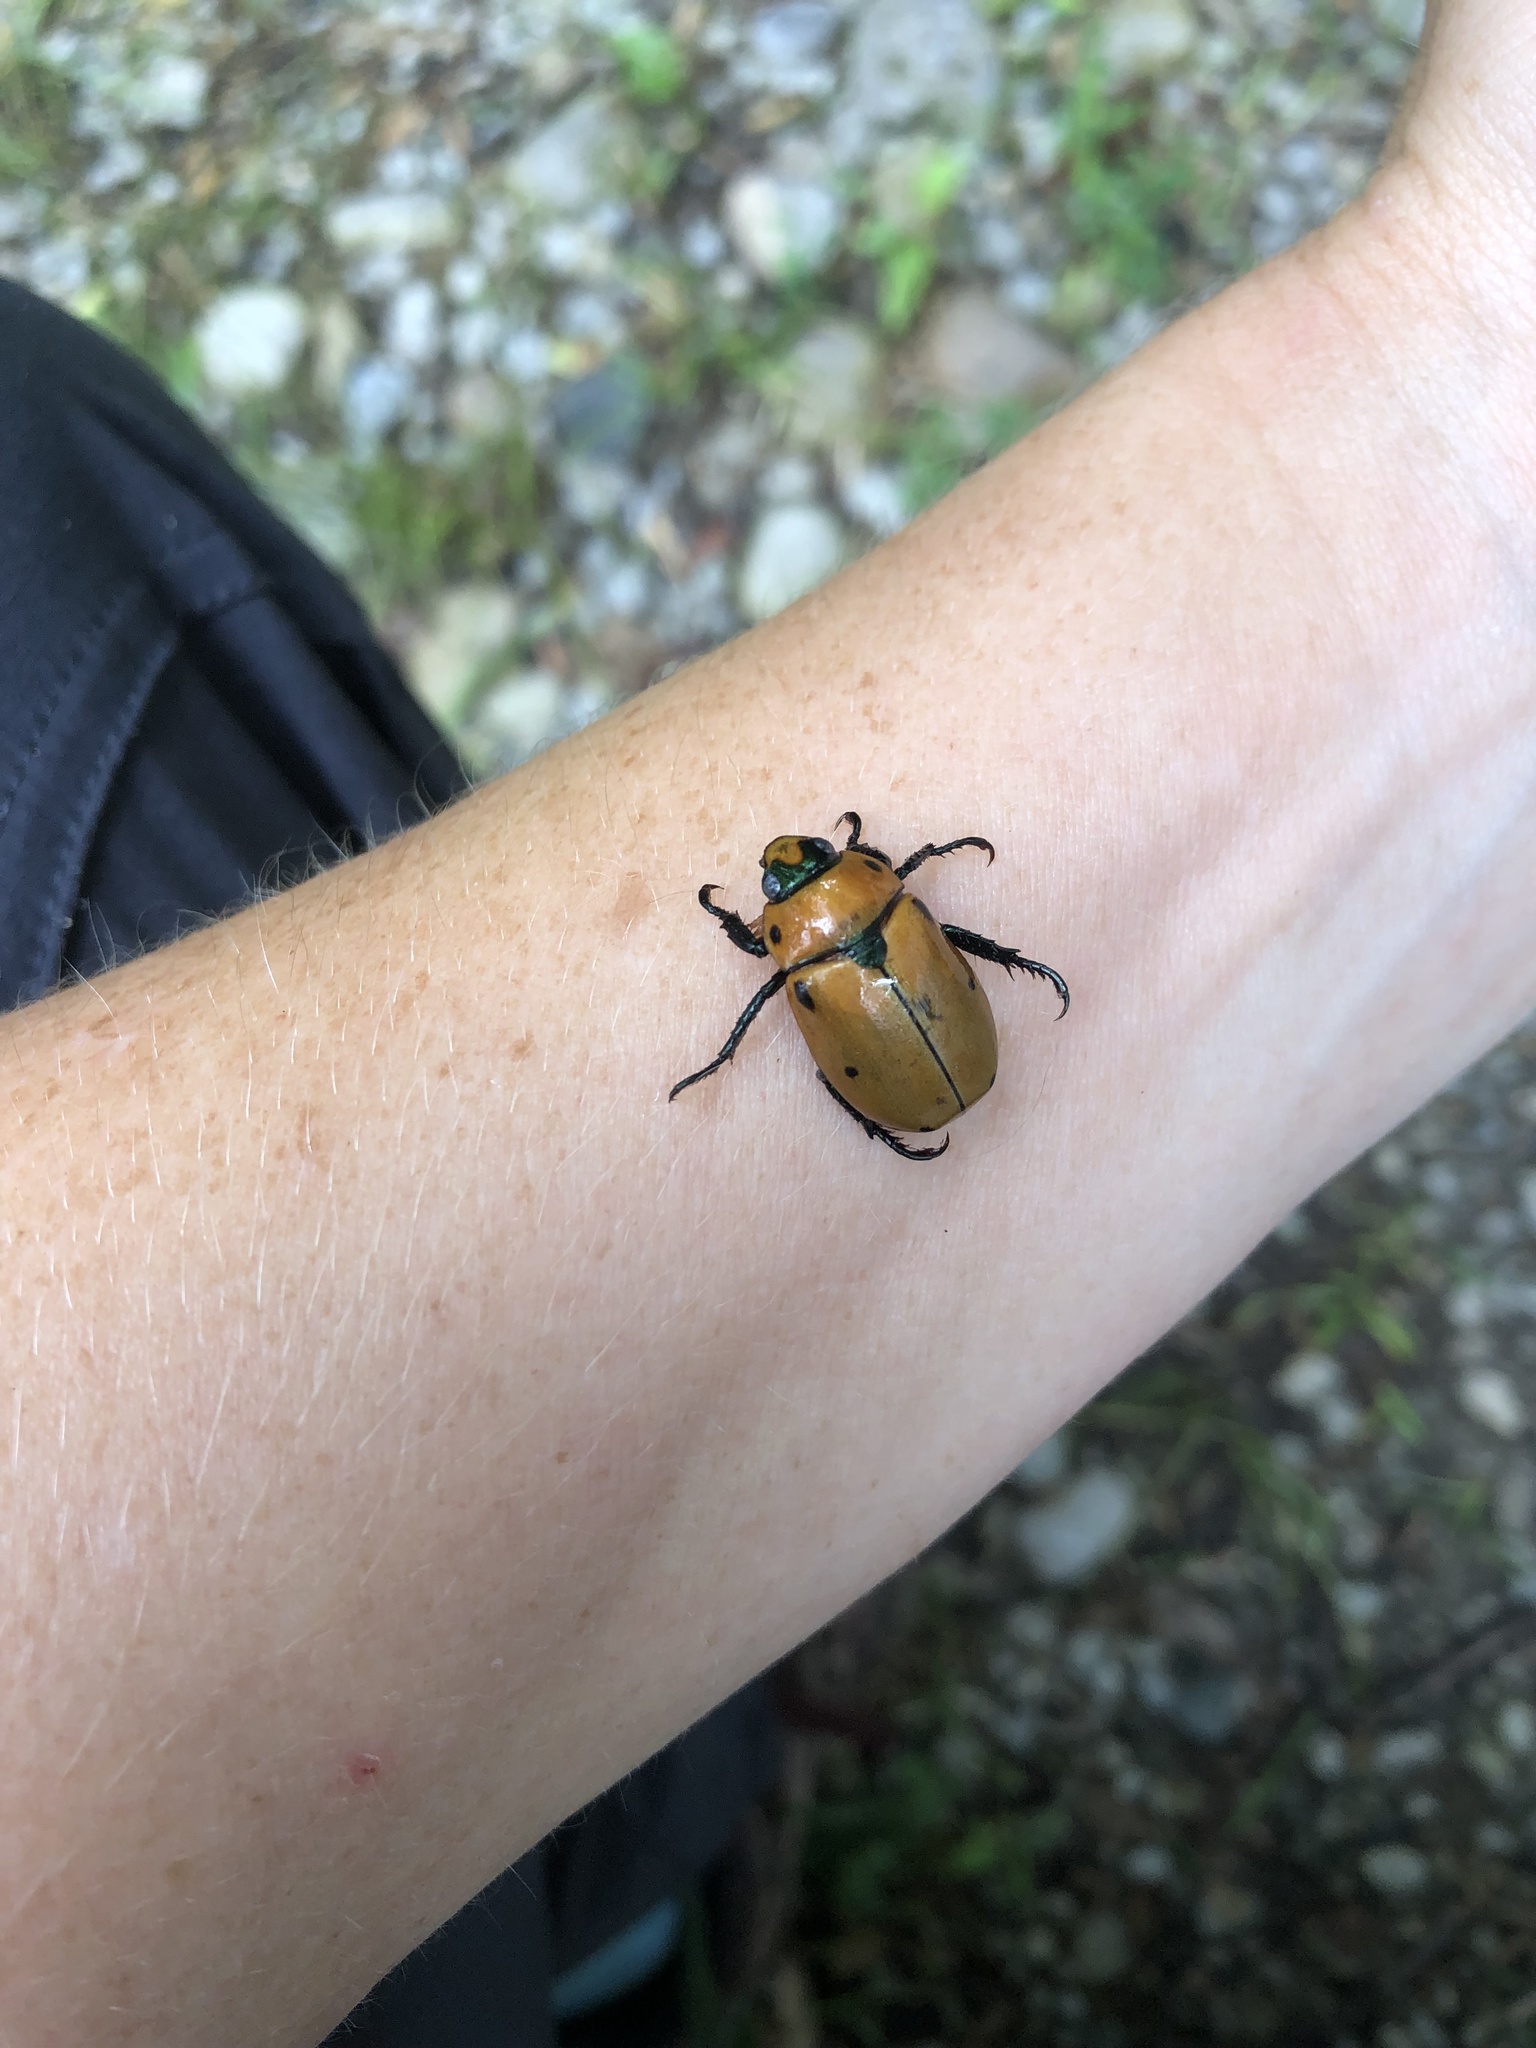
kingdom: Animalia
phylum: Arthropoda
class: Insecta
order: Coleoptera
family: Scarabaeidae
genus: Pelidnota
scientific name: Pelidnota punctata
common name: Grapevine beetle
